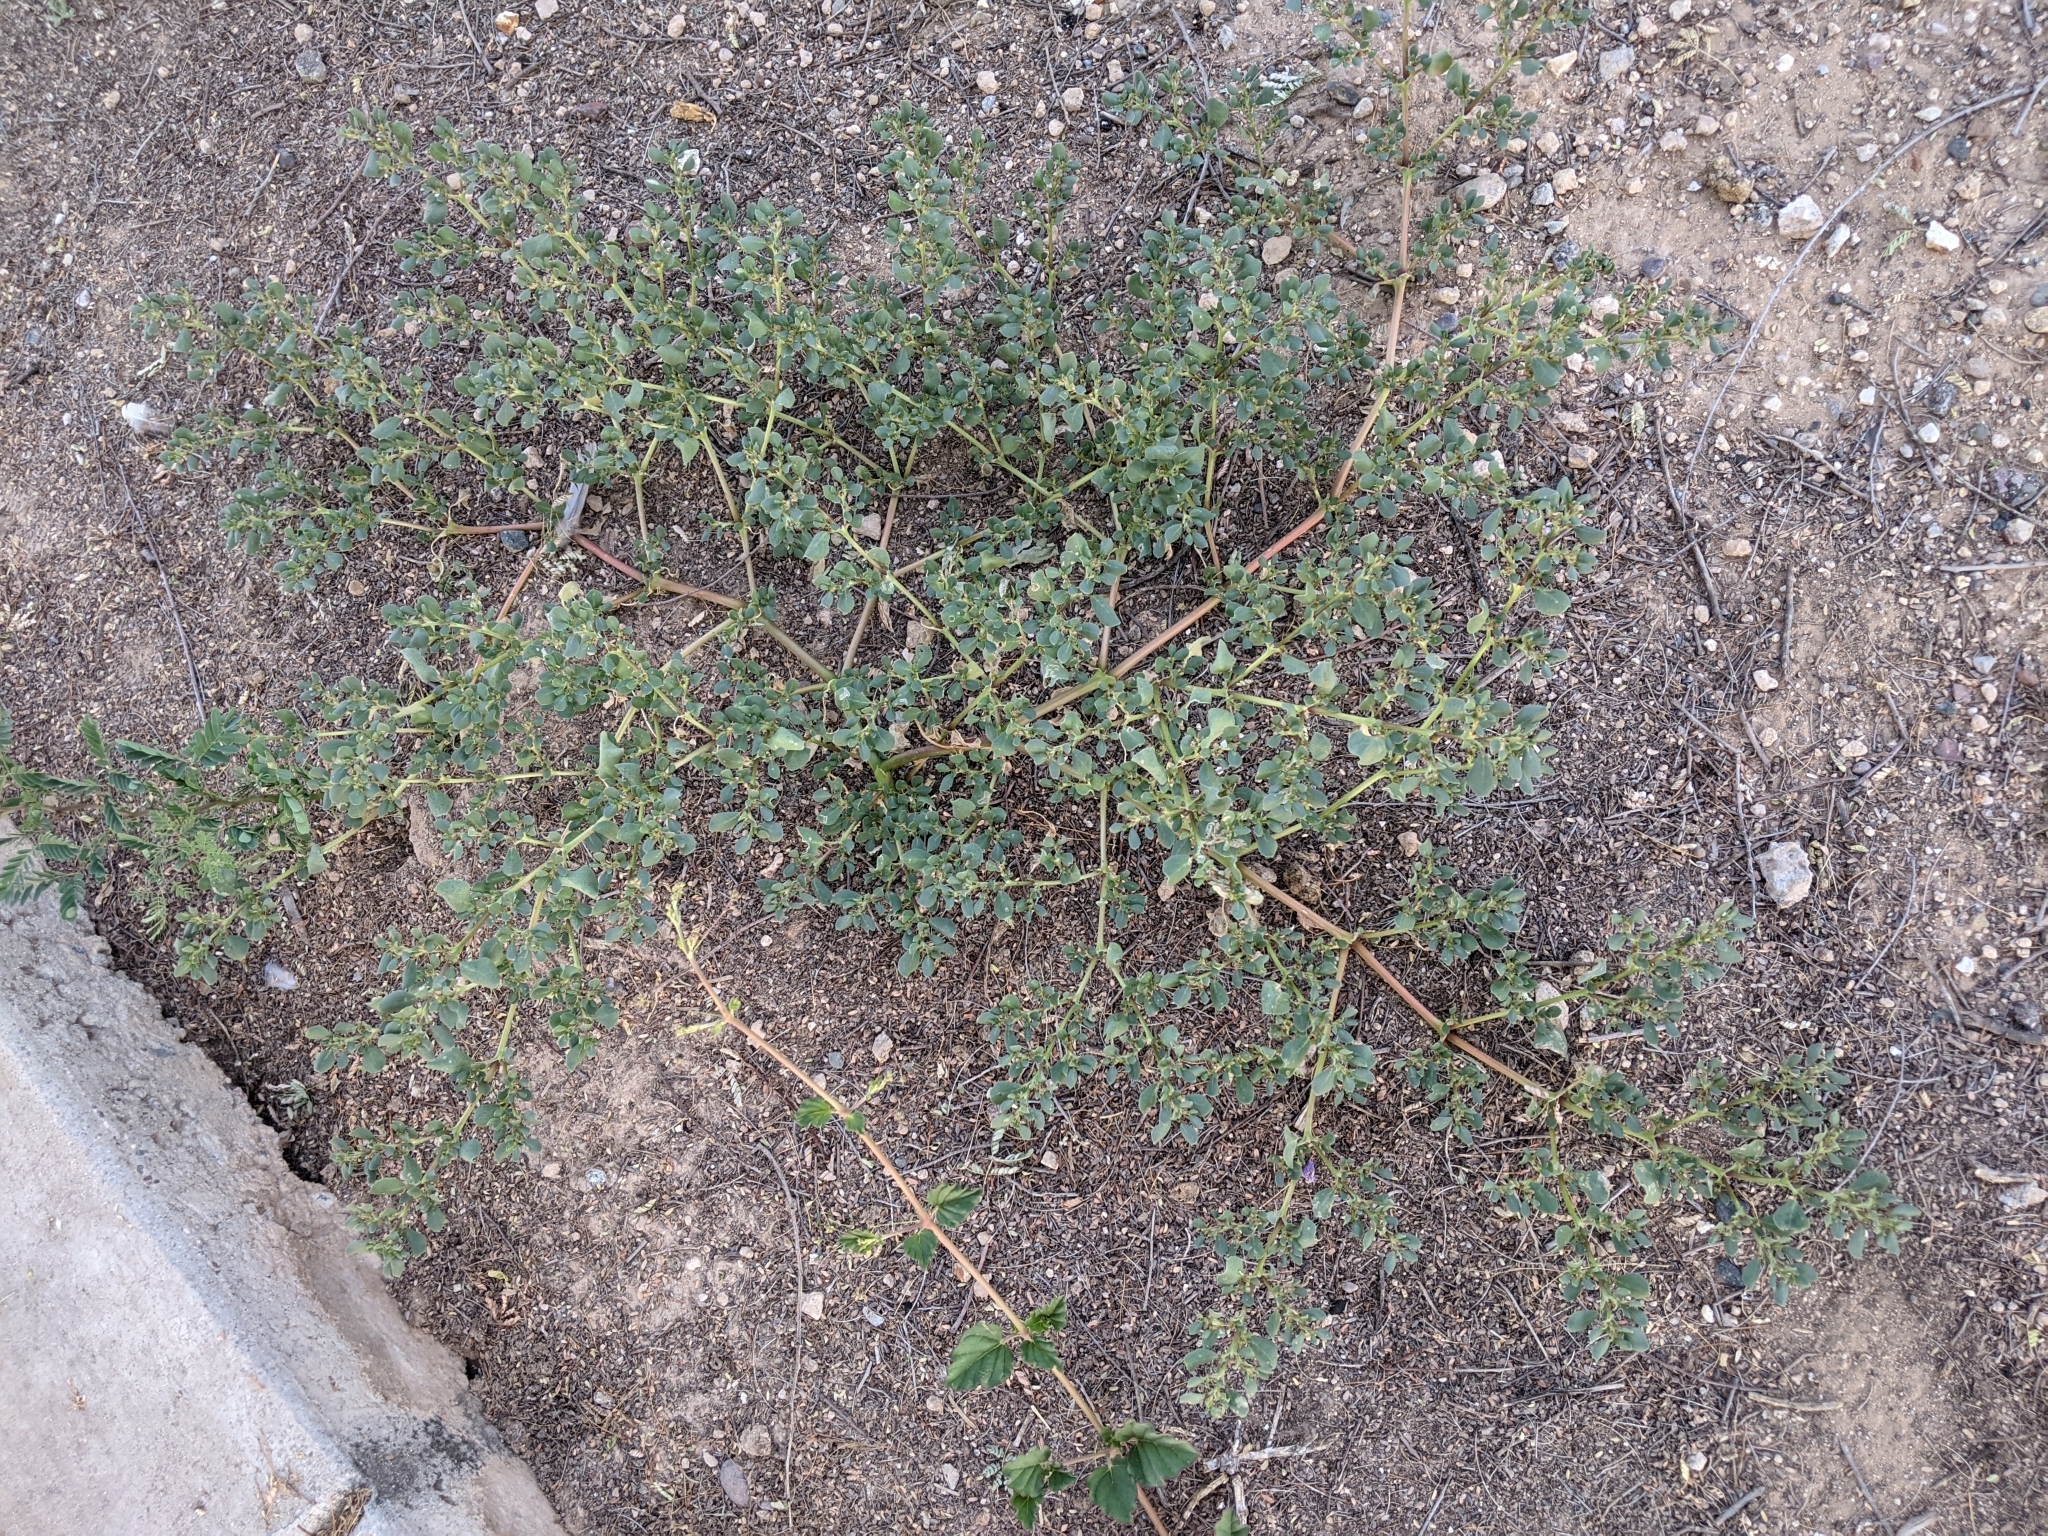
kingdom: Plantae
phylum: Tracheophyta
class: Magnoliopsida
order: Caryophyllales
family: Aizoaceae
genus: Trianthema
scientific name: Trianthema portulacastrum
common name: Desert horsepurslane
